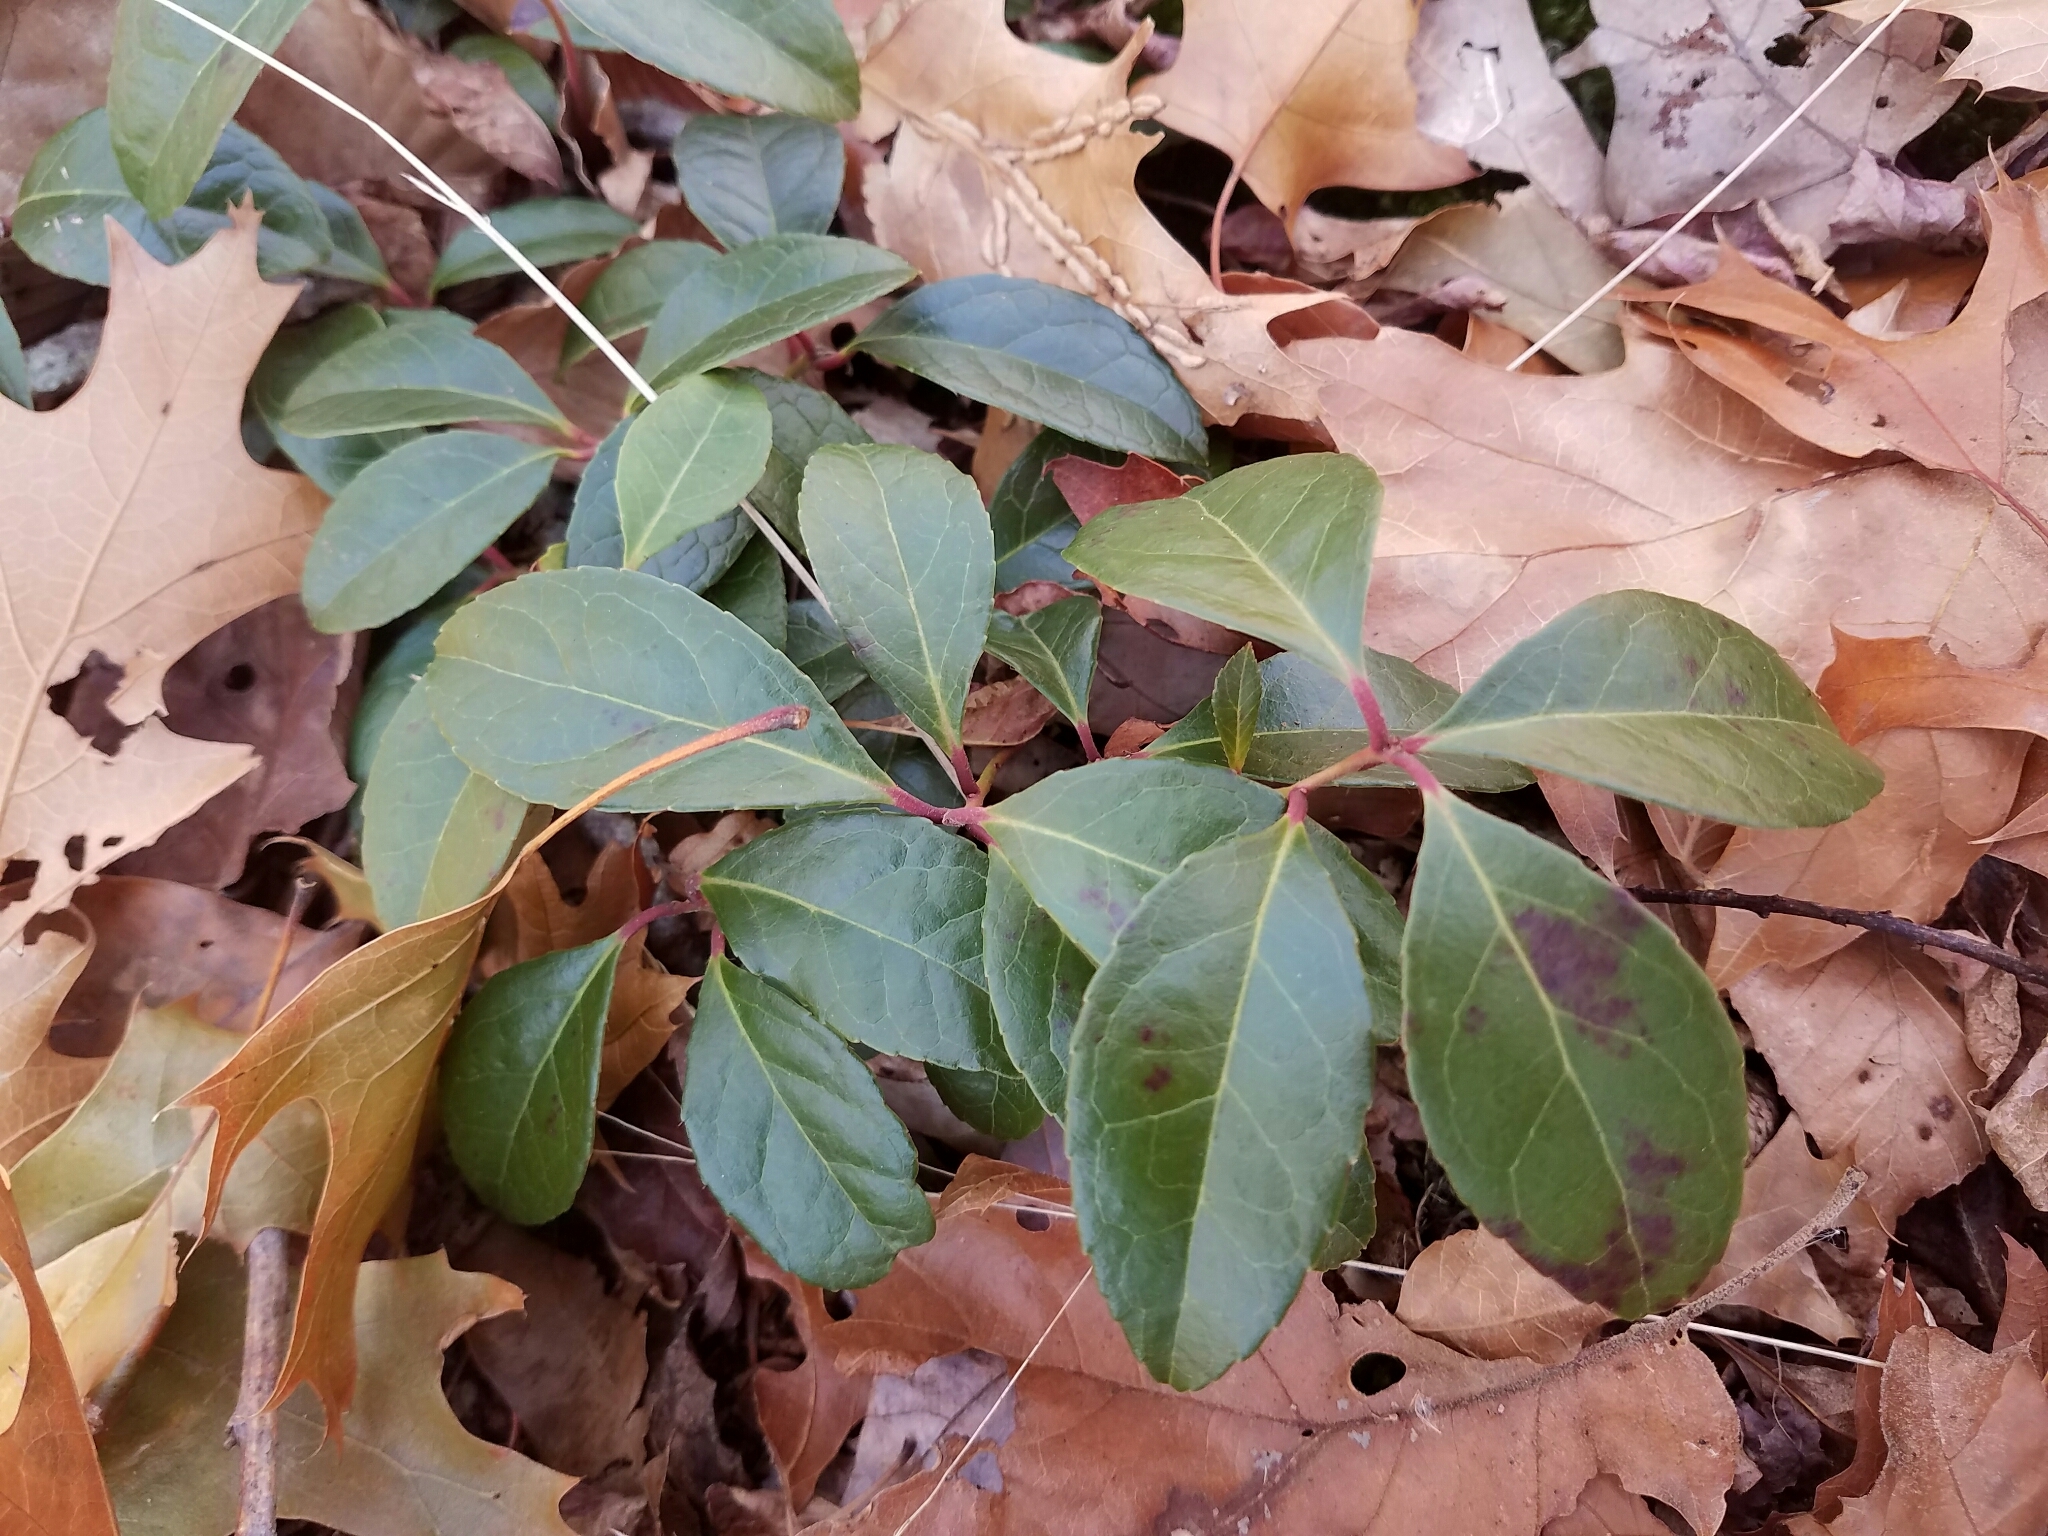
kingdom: Plantae
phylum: Tracheophyta
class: Magnoliopsida
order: Ericales
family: Ericaceae
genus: Gaultheria
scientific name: Gaultheria procumbens
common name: Checkerberry
